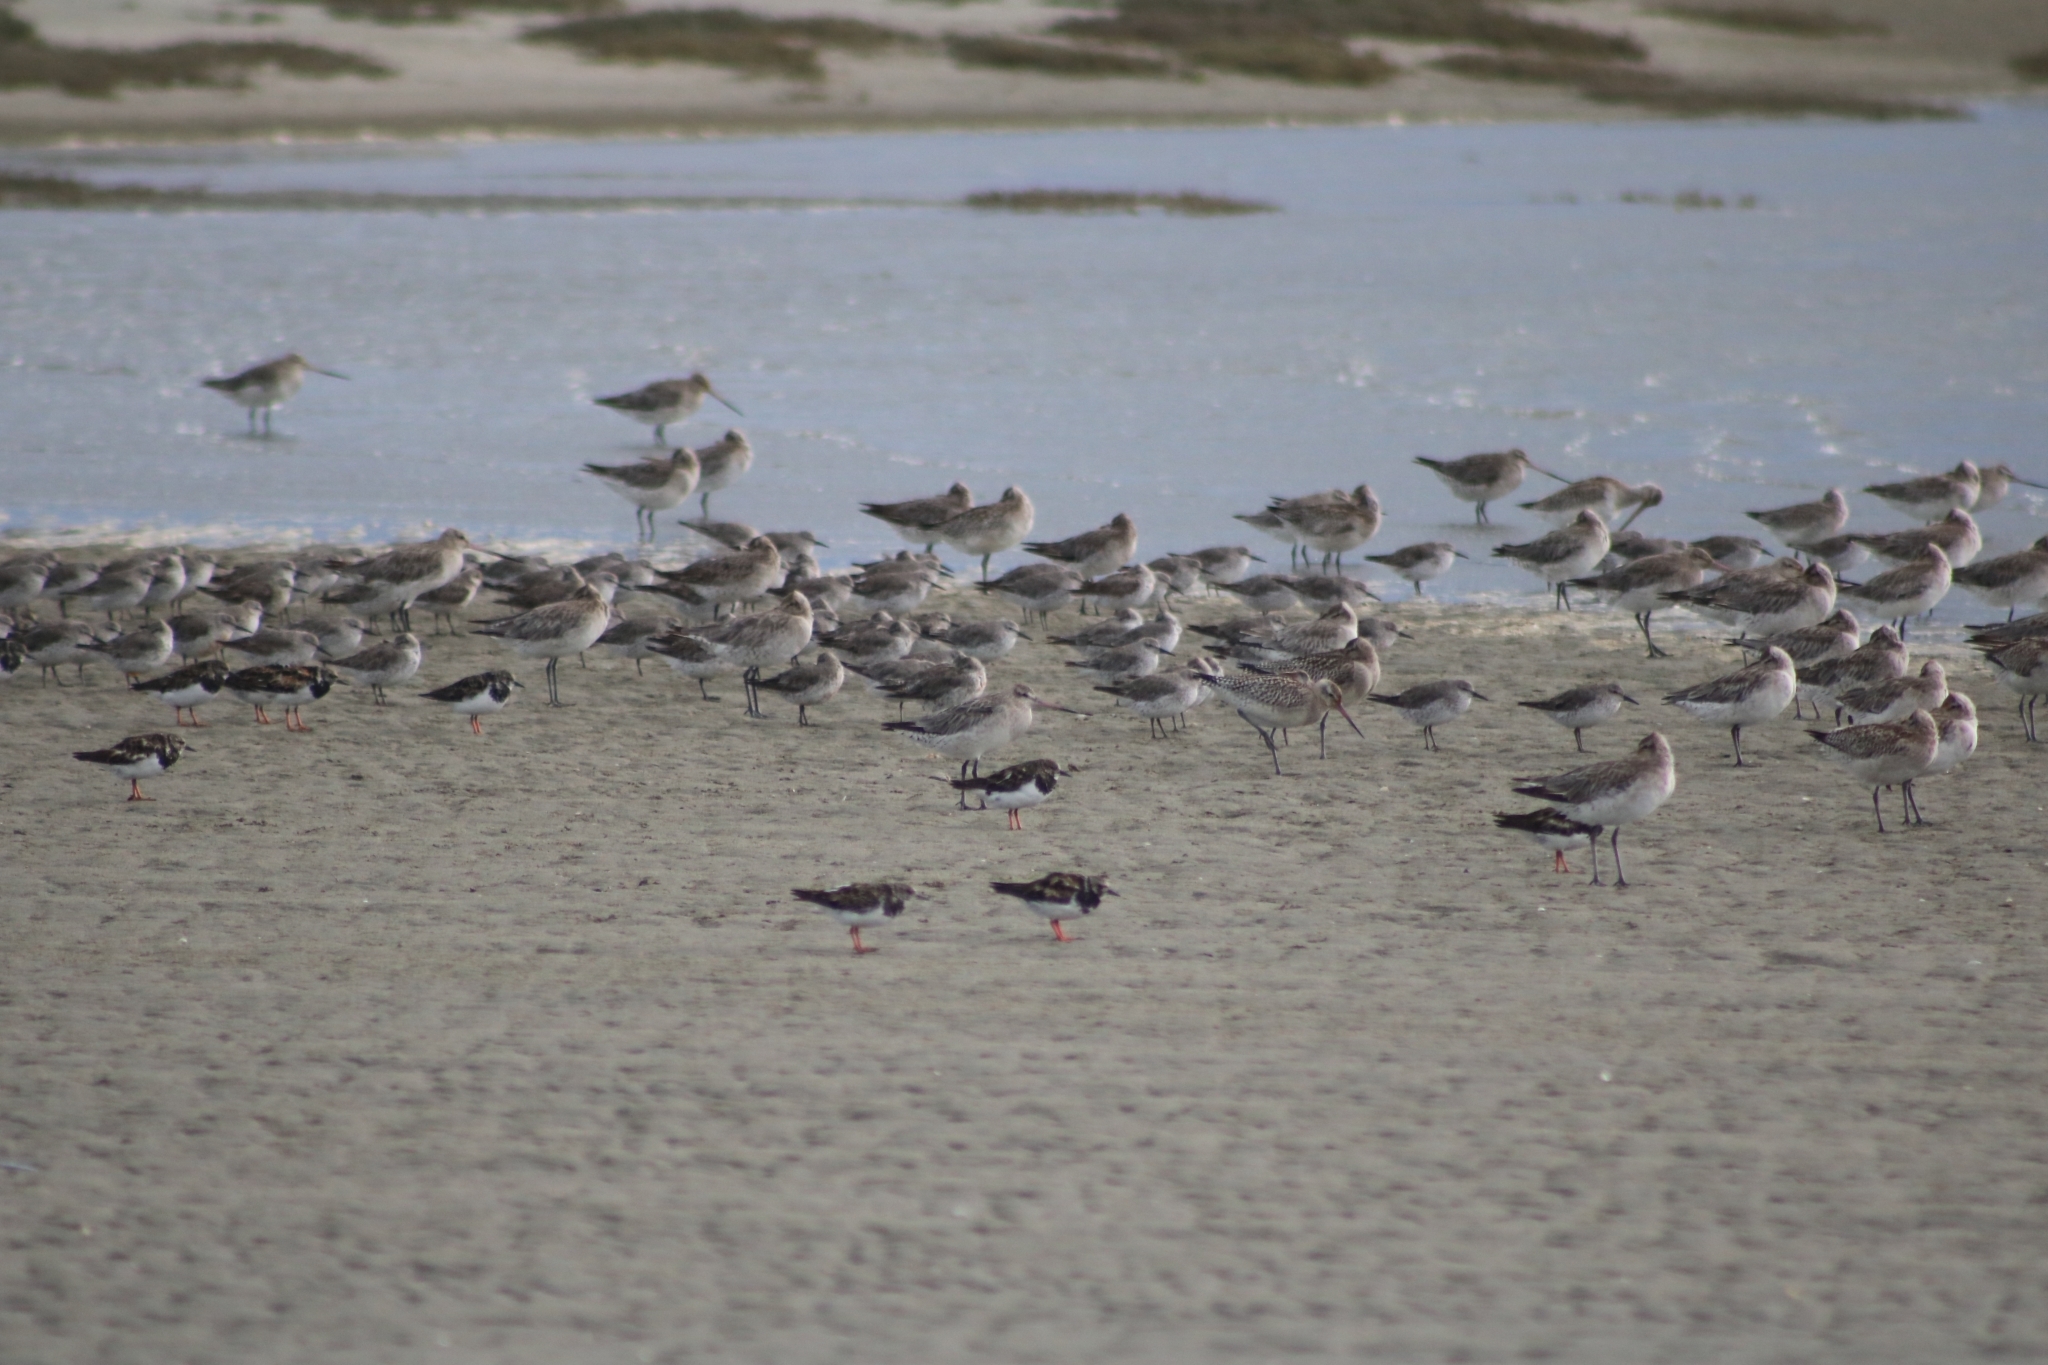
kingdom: Animalia
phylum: Chordata
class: Aves
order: Charadriiformes
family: Scolopacidae
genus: Calidris
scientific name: Calidris canutus
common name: Red knot
